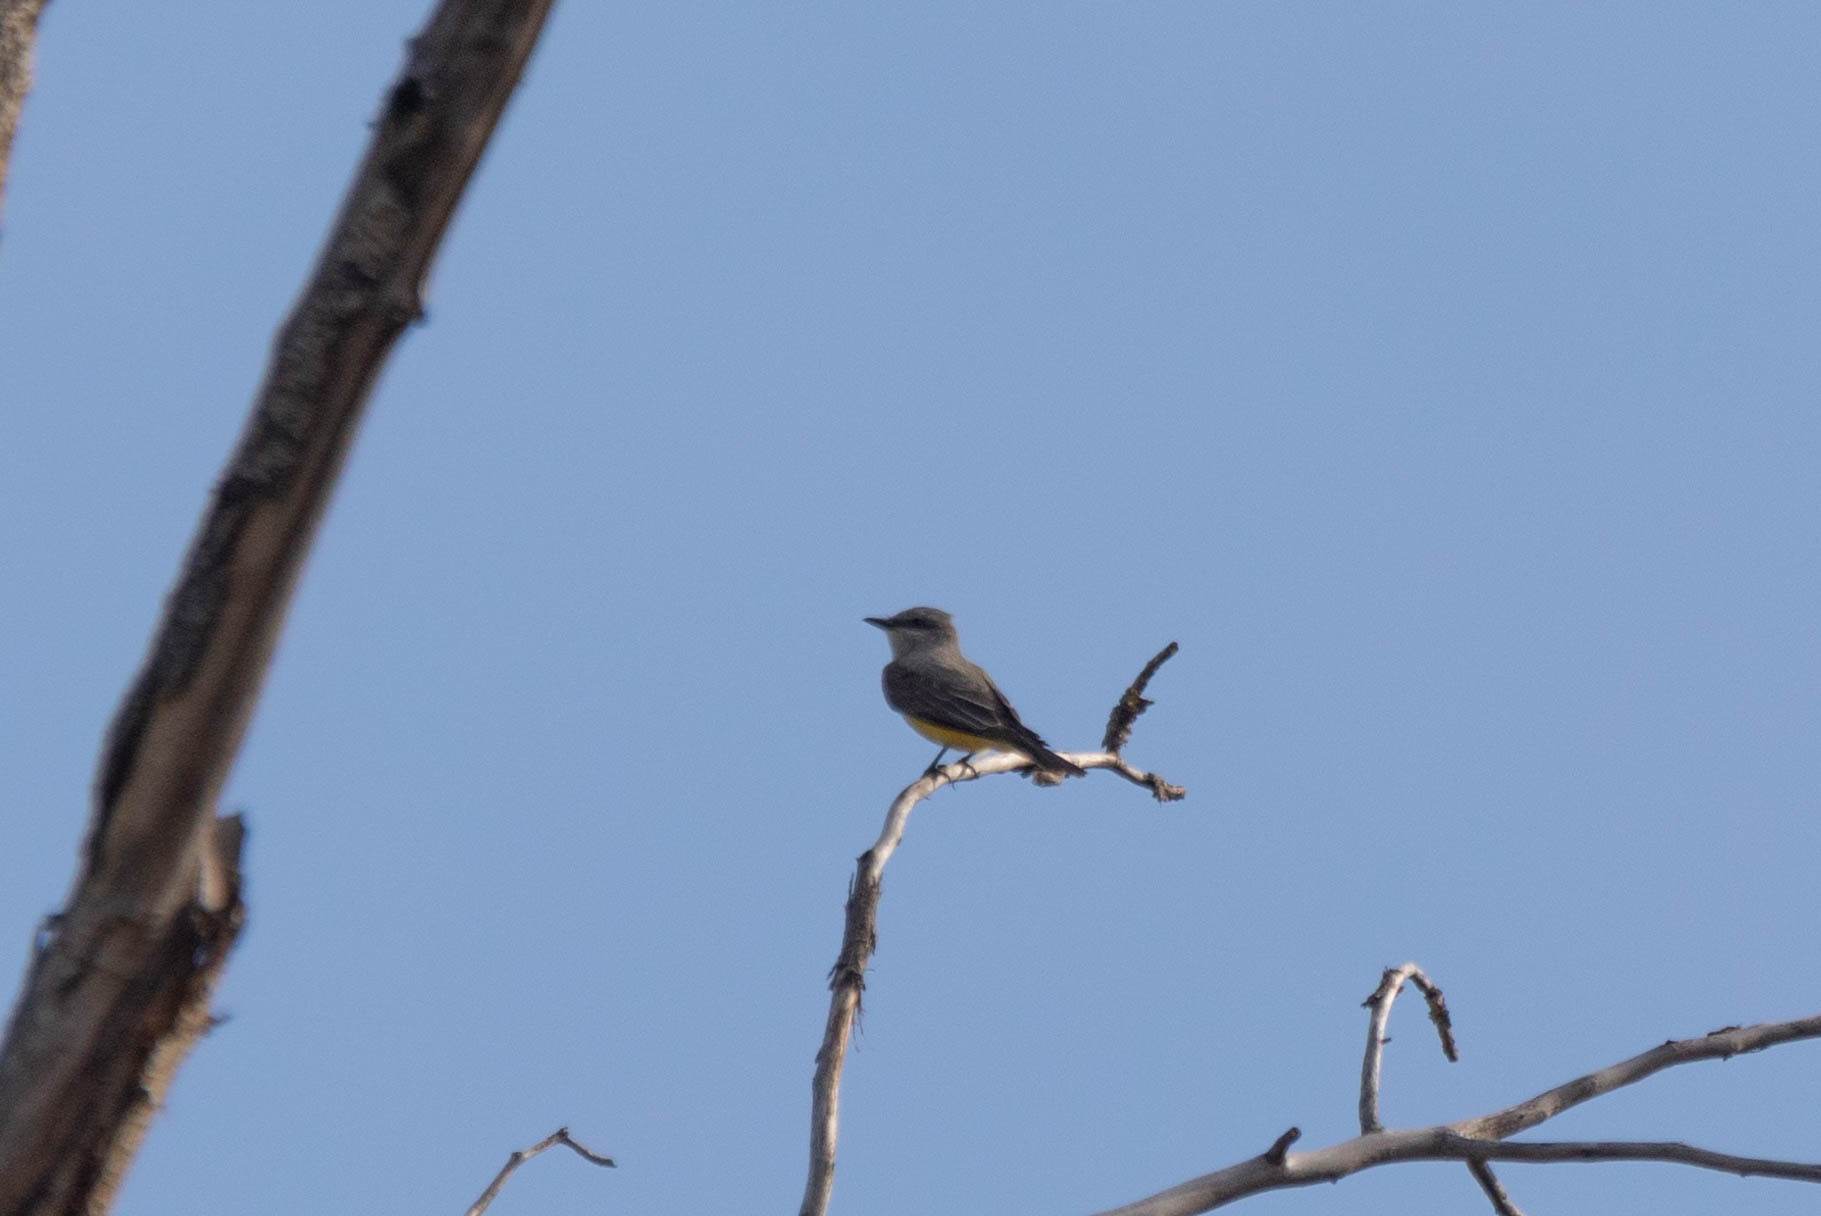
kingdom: Animalia
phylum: Chordata
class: Aves
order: Passeriformes
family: Tyrannidae
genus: Tyrannus
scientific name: Tyrannus verticalis
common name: Western kingbird
